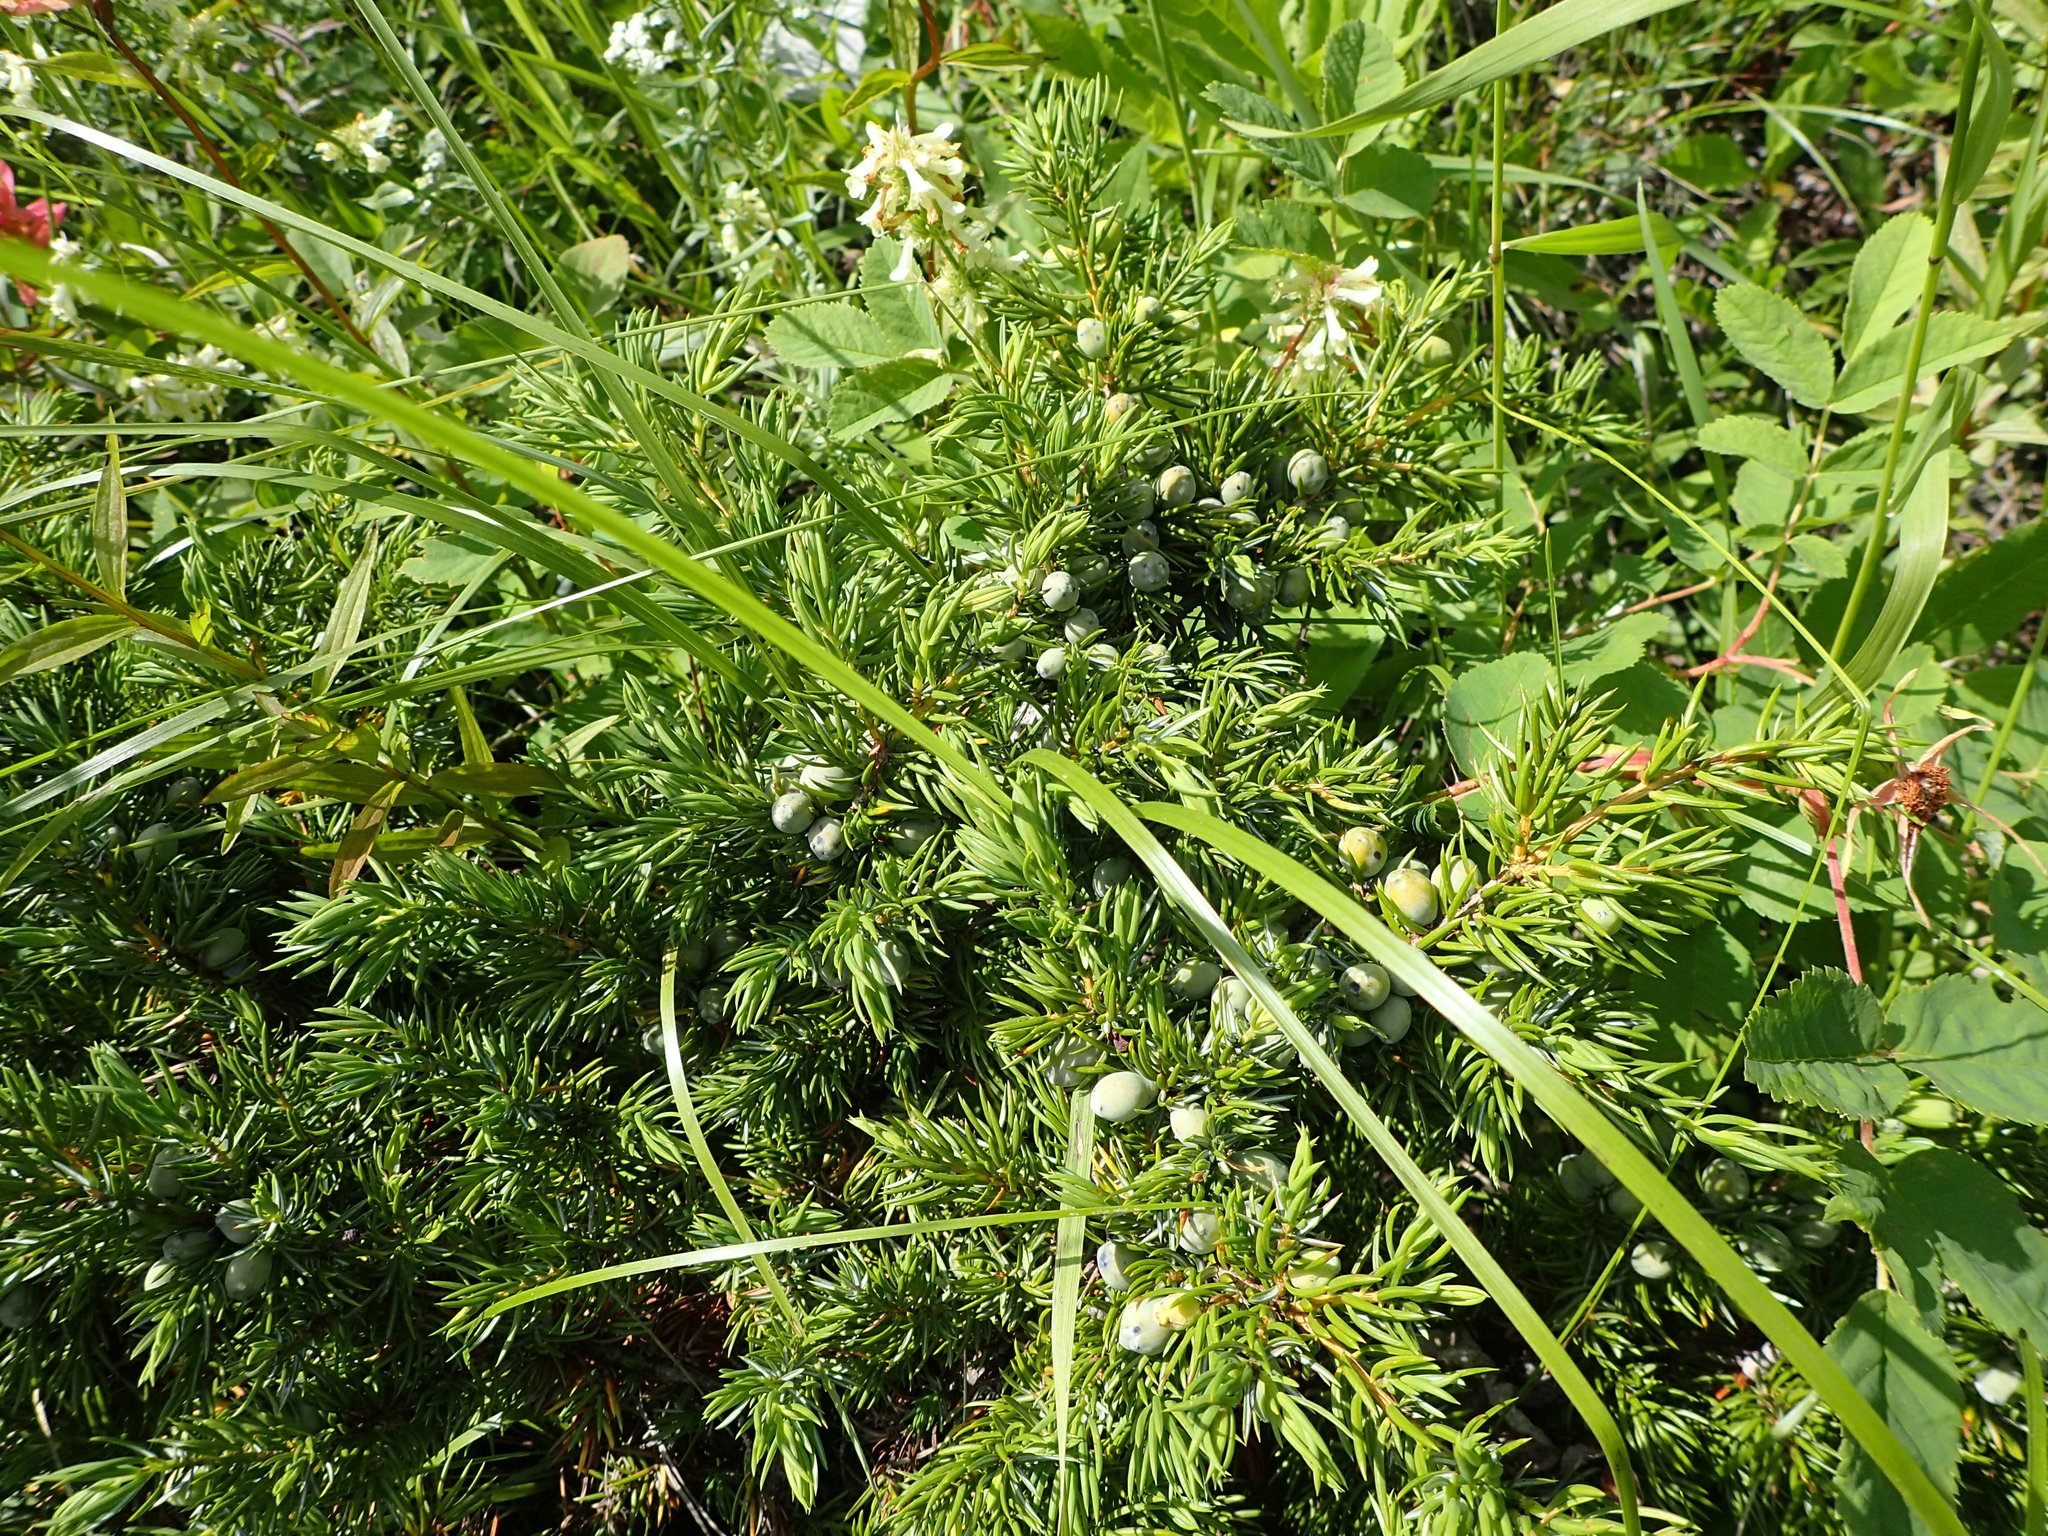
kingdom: Plantae
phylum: Tracheophyta
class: Pinopsida
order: Pinales
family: Cupressaceae
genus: Juniperus
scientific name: Juniperus communis
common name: Common juniper
